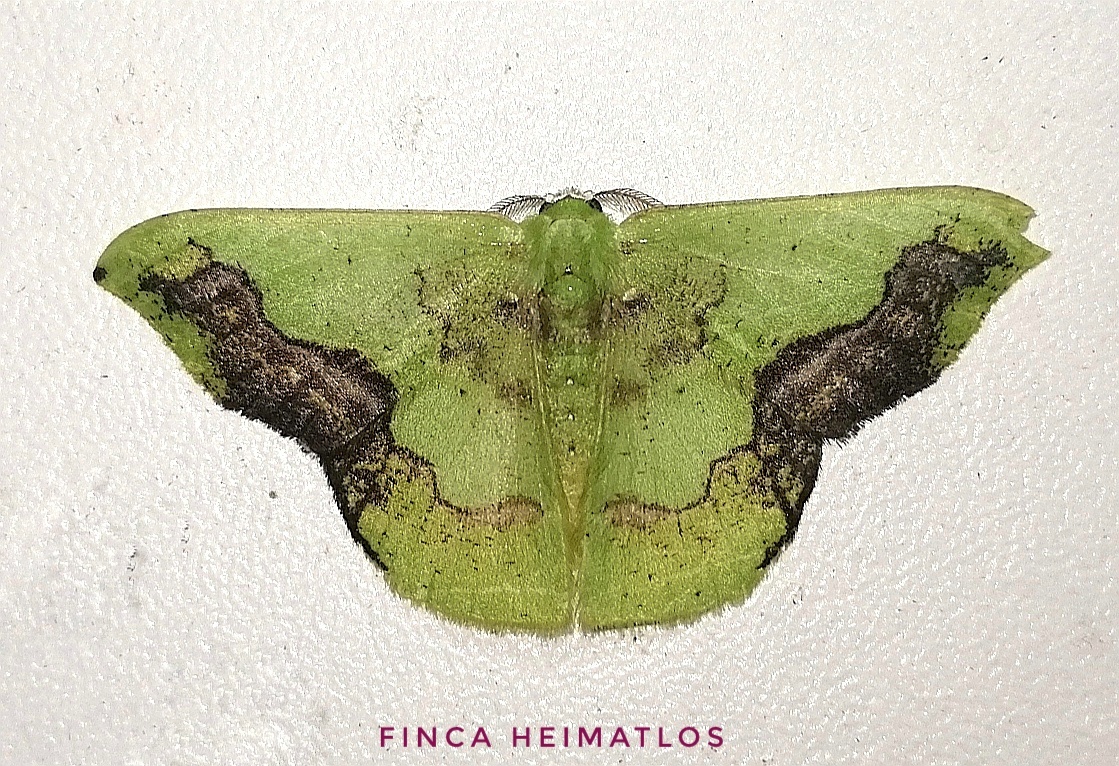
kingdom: Animalia
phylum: Arthropoda
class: Insecta
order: Lepidoptera
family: Geometridae
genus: Phrudocentra
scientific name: Phrudocentra janeira
